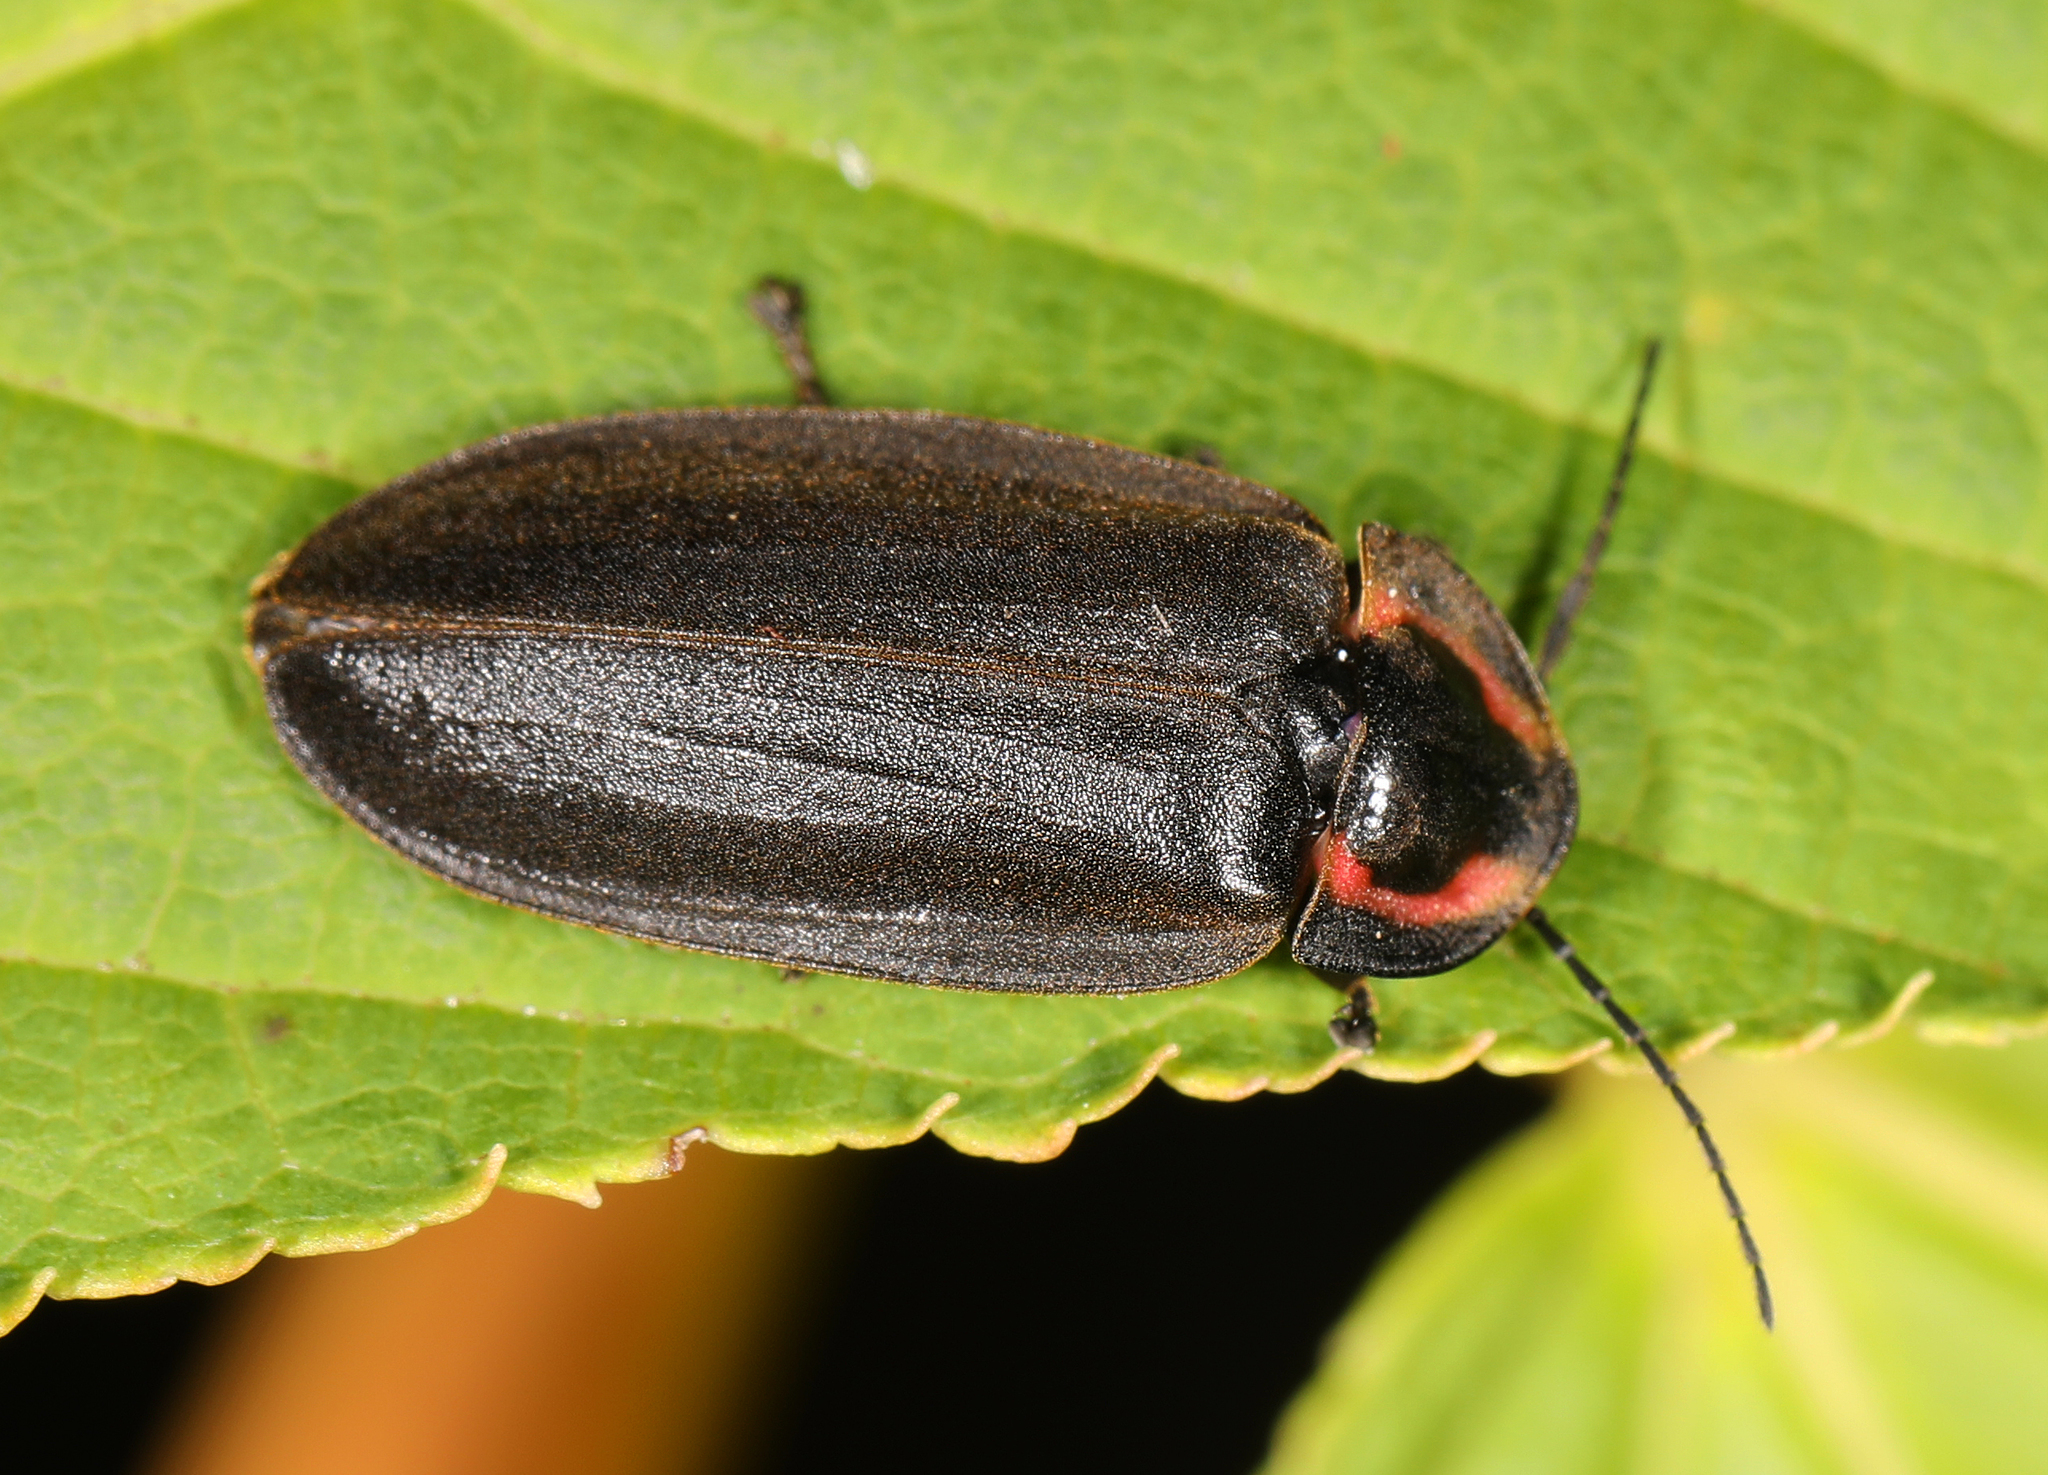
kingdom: Animalia
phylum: Arthropoda
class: Insecta
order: Coleoptera
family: Lampyridae
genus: Photinus
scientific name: Photinus corrusca
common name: Winter firefly
